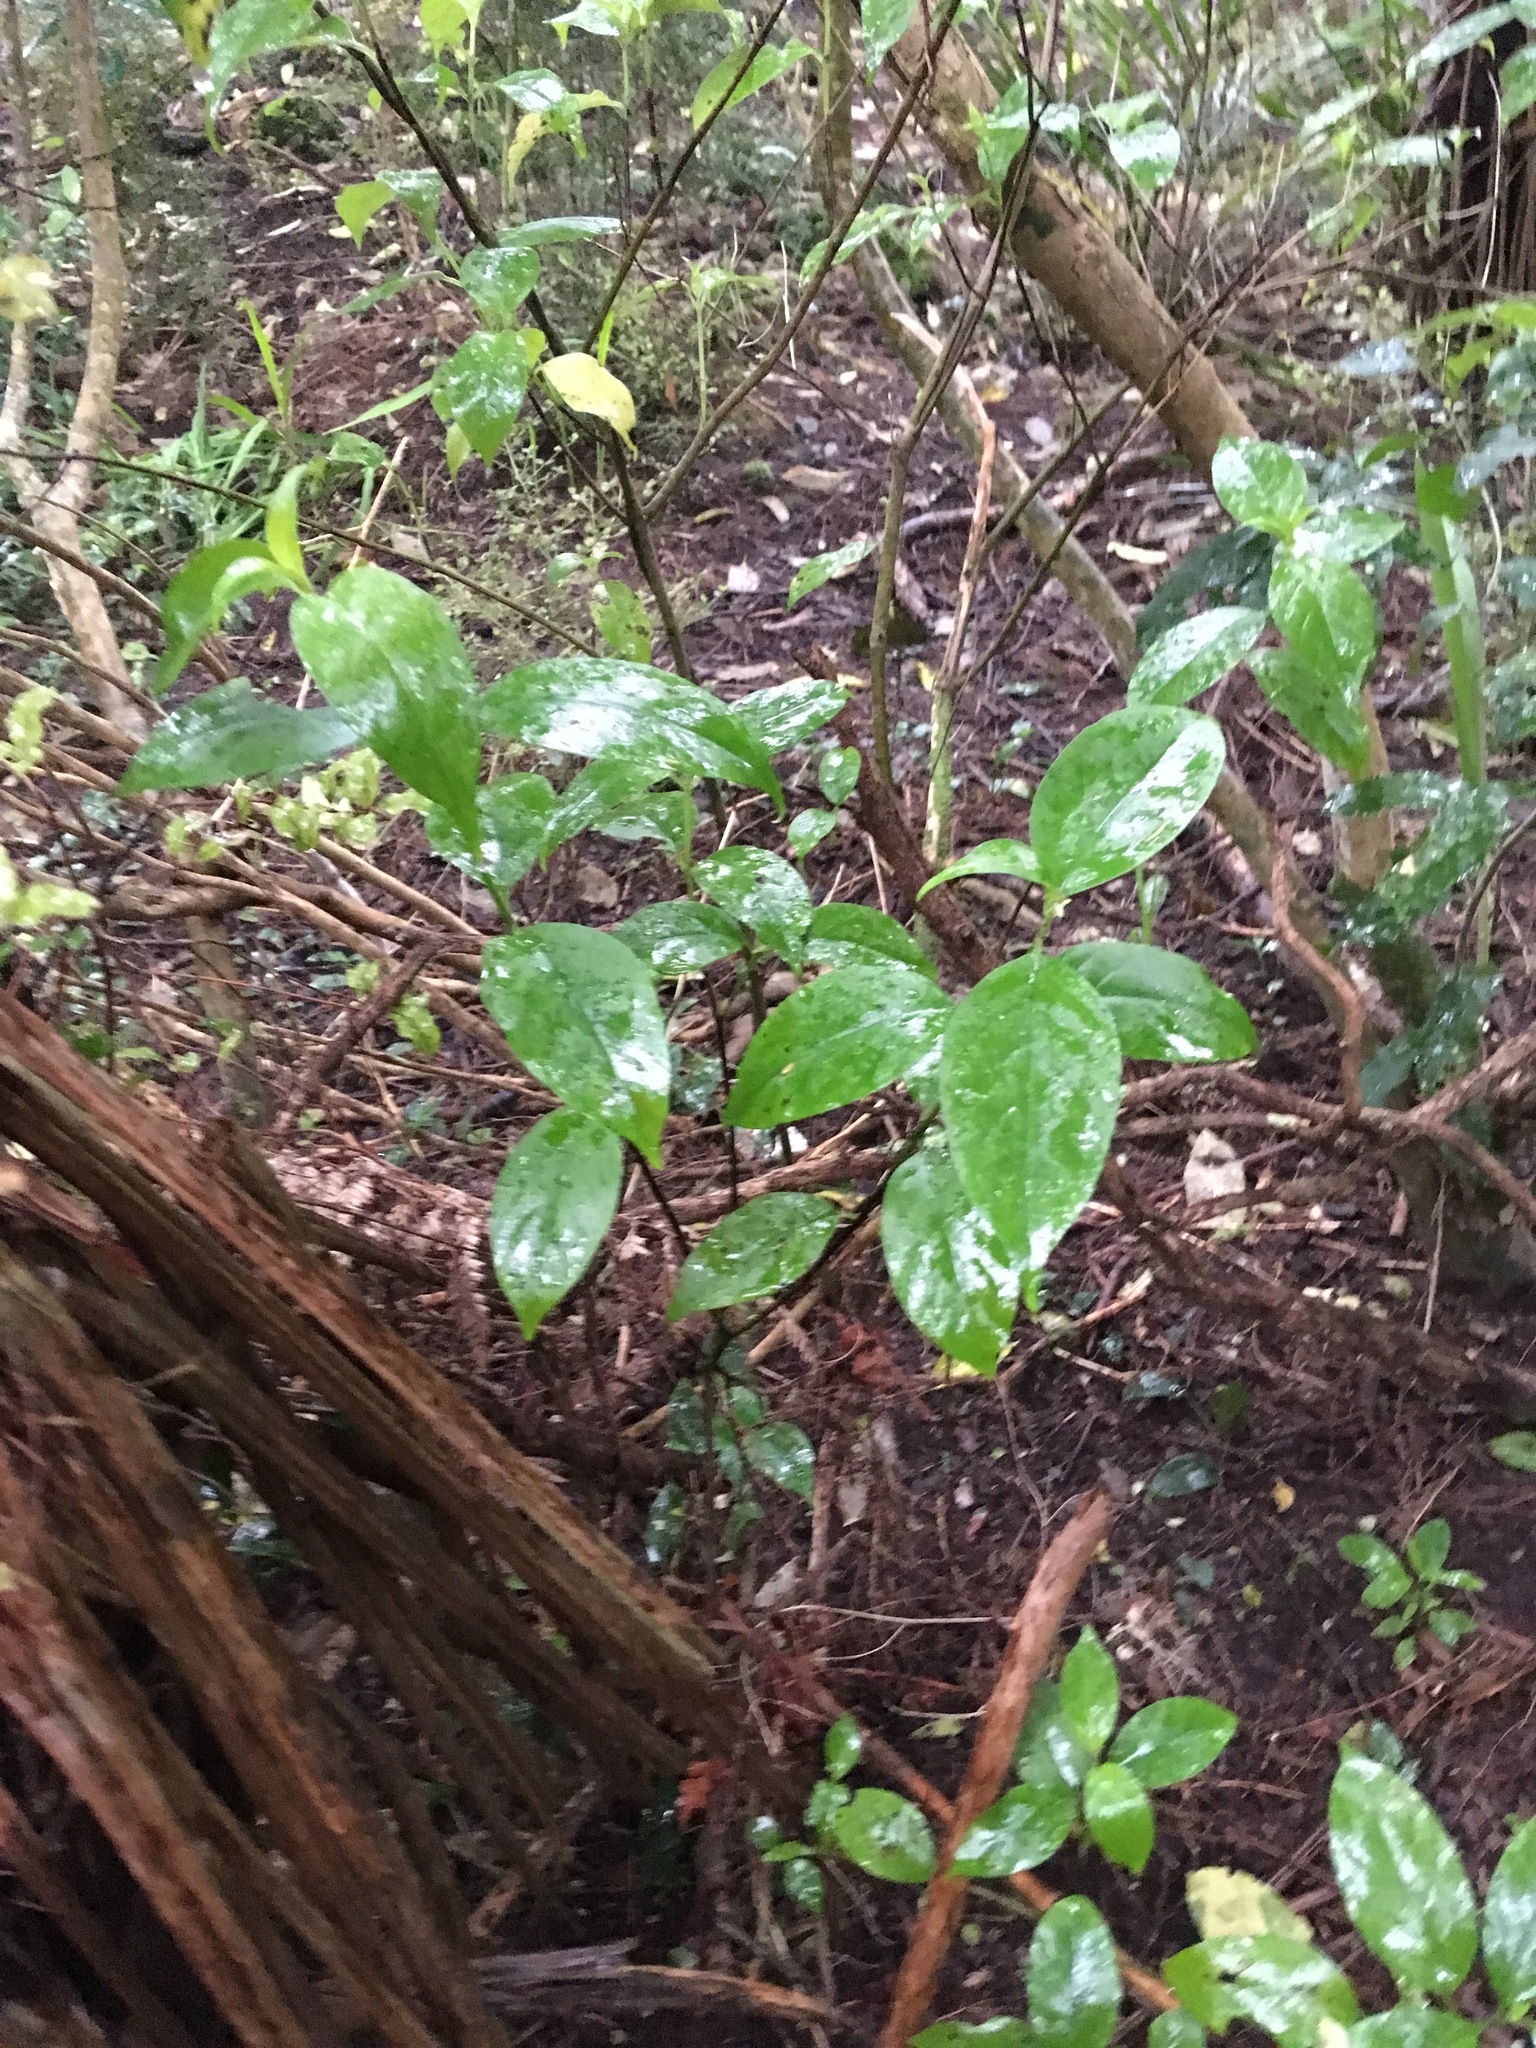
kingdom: Plantae
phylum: Tracheophyta
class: Magnoliopsida
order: Gentianales
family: Loganiaceae
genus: Geniostoma
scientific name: Geniostoma ligustrifolium
